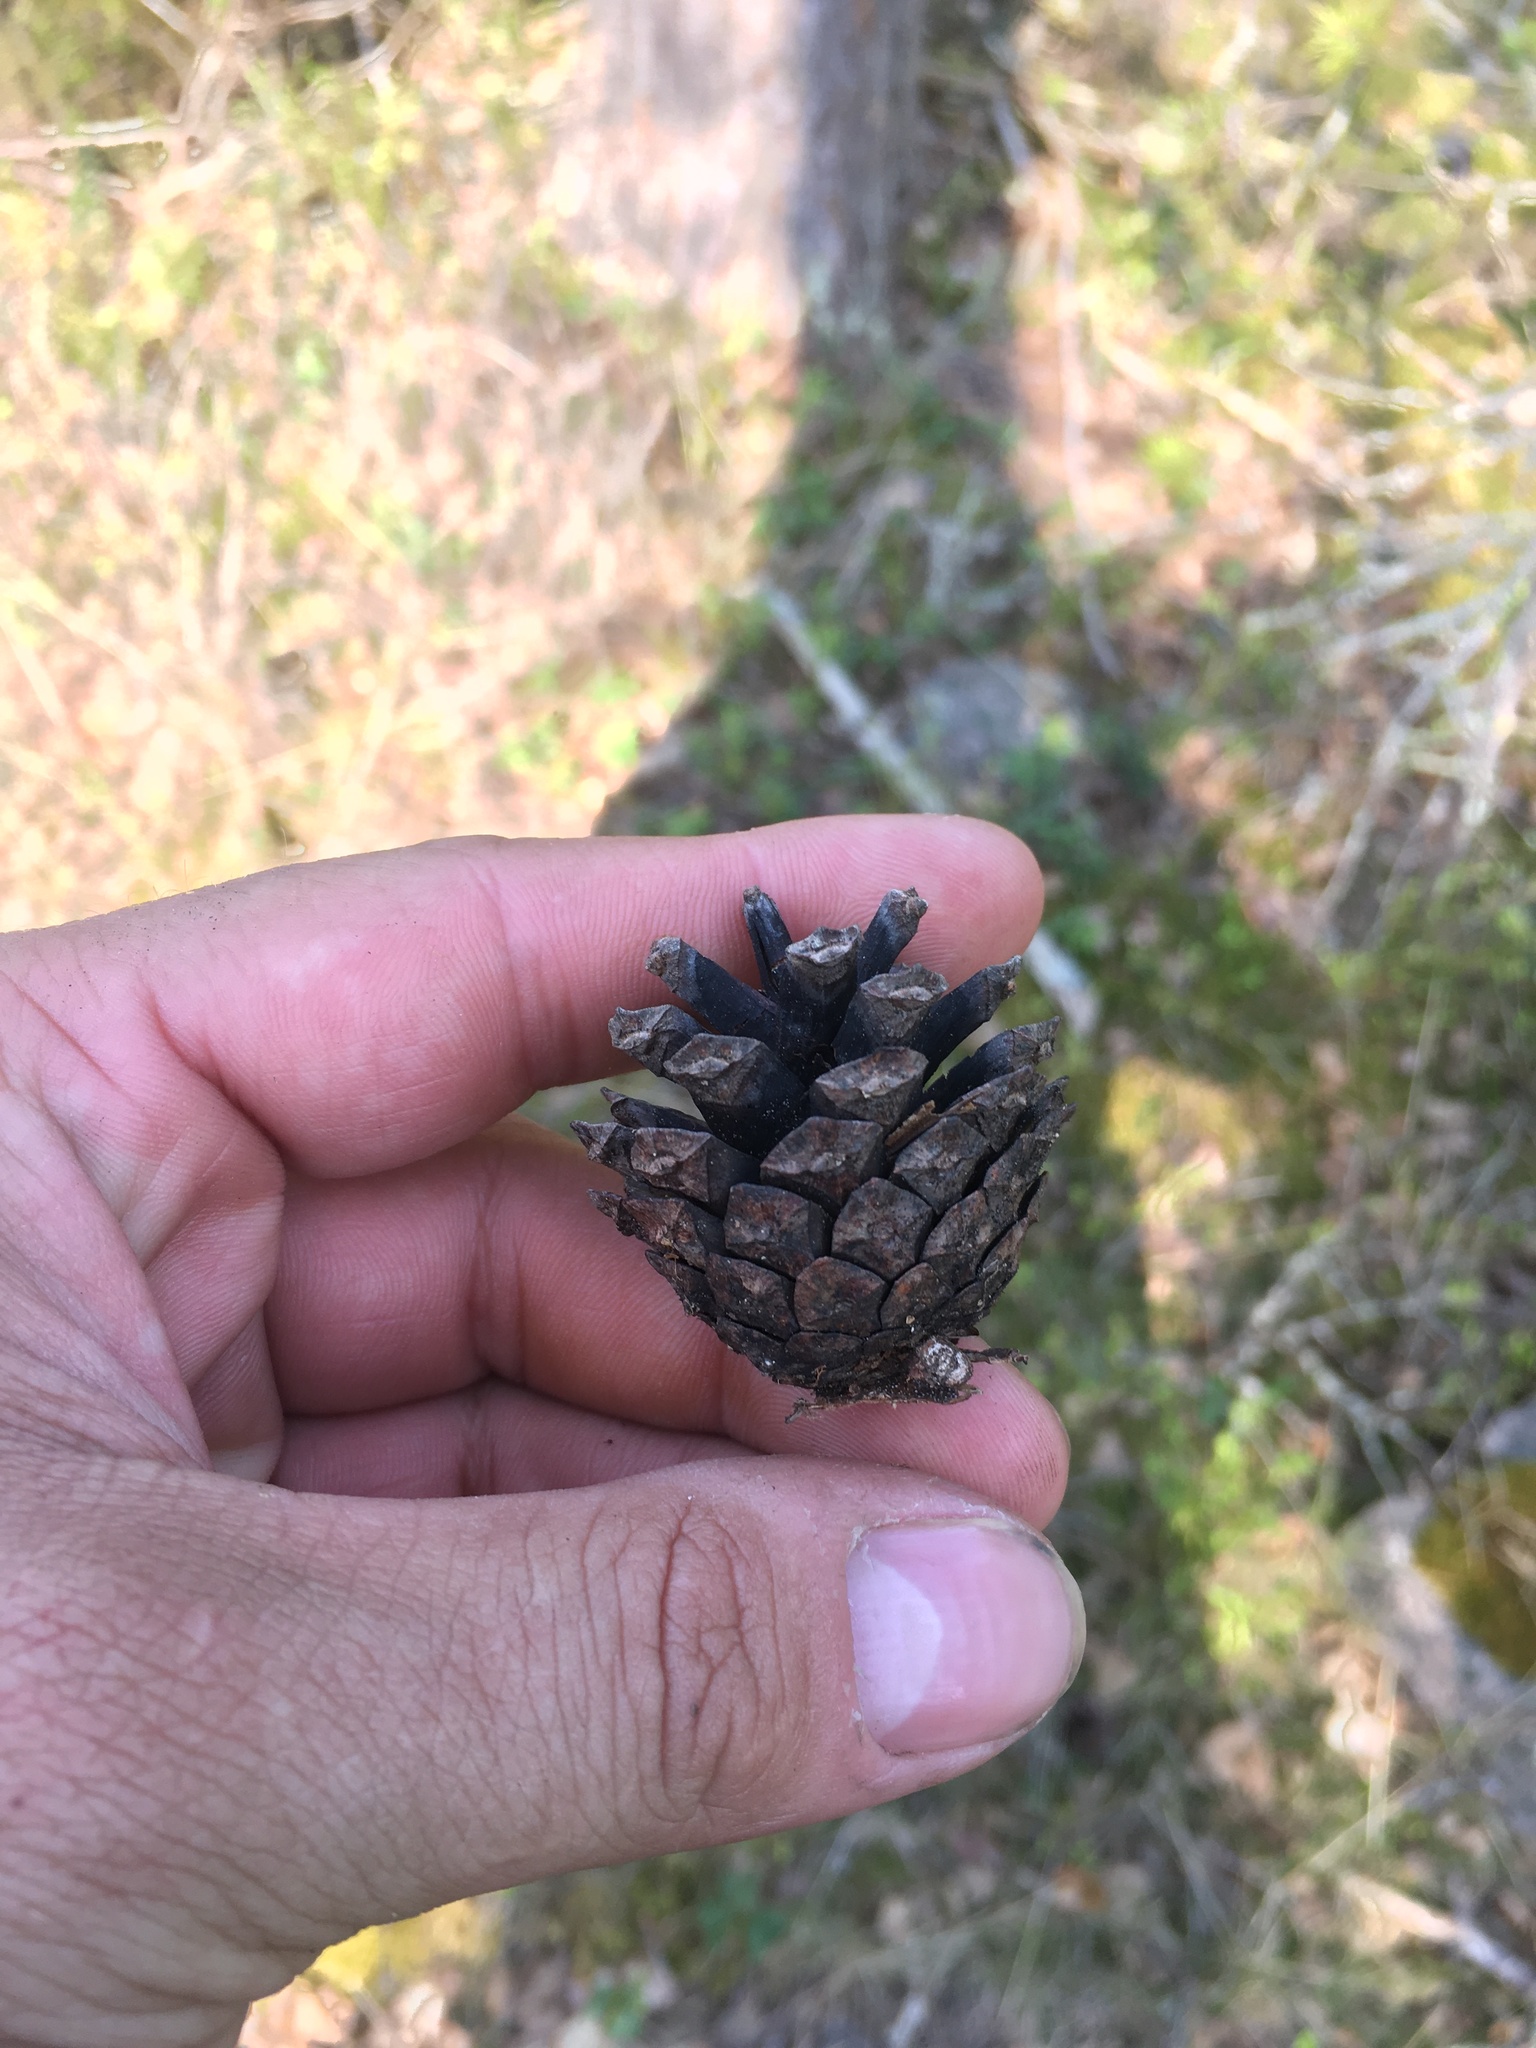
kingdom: Plantae
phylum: Tracheophyta
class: Pinopsida
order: Pinales
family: Pinaceae
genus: Pinus
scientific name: Pinus sylvestris
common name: Scots pine
